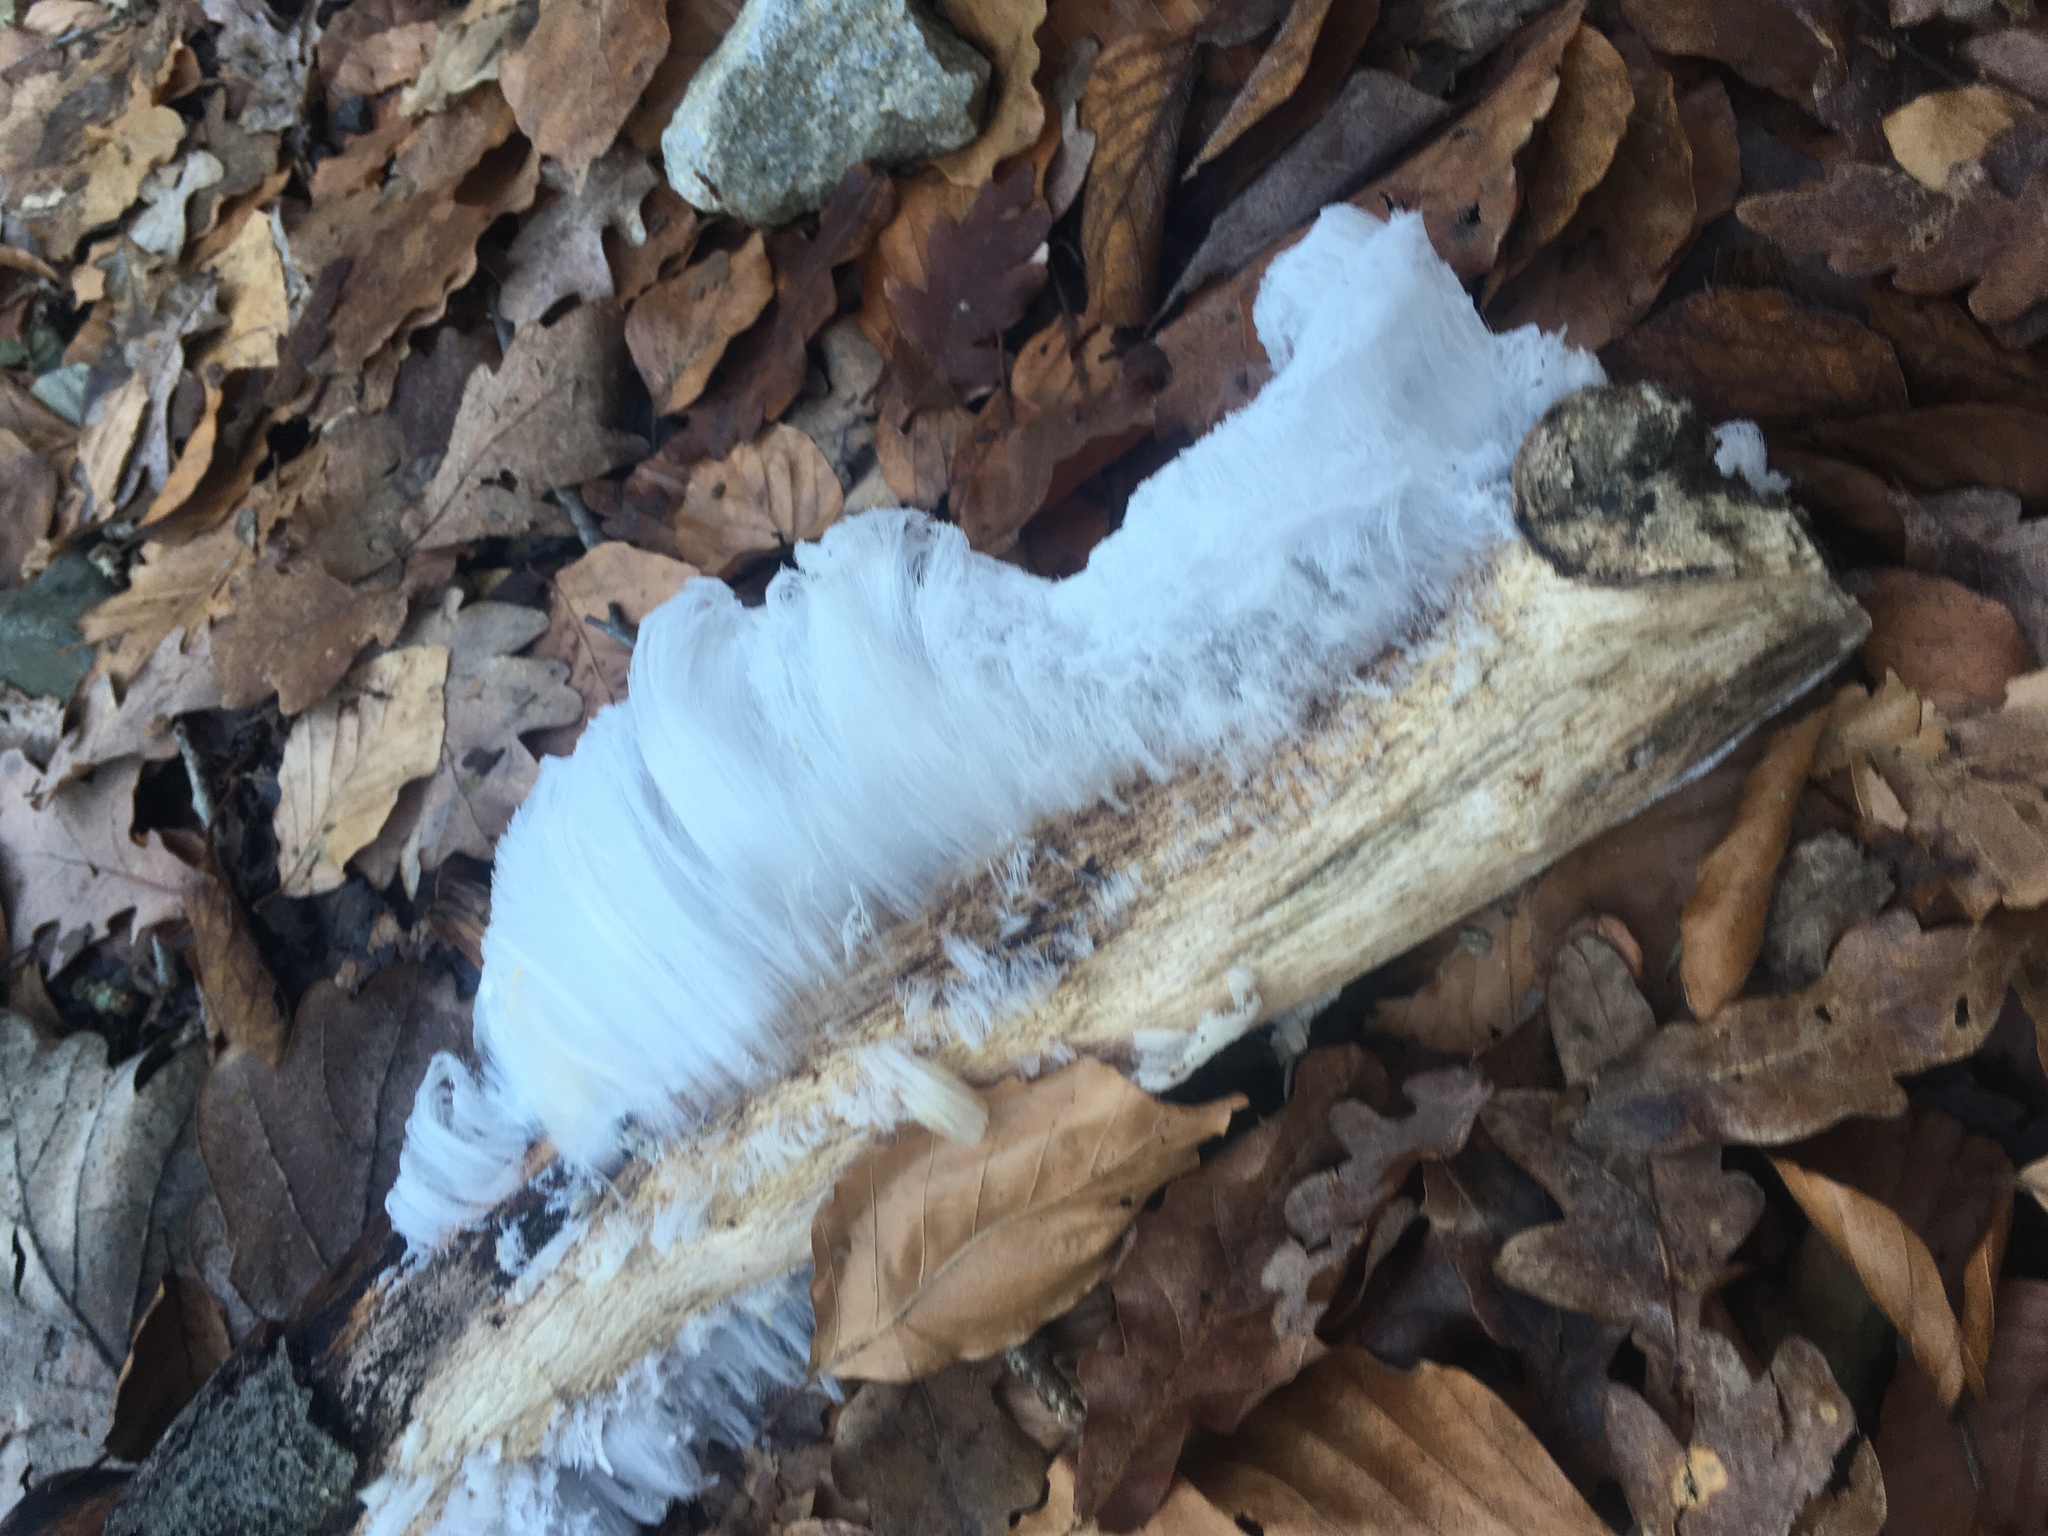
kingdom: Fungi
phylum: Basidiomycota
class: Agaricomycetes
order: Auriculariales
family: Auriculariaceae
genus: Exidiopsis
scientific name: Exidiopsis effusa
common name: Hair ice crust
